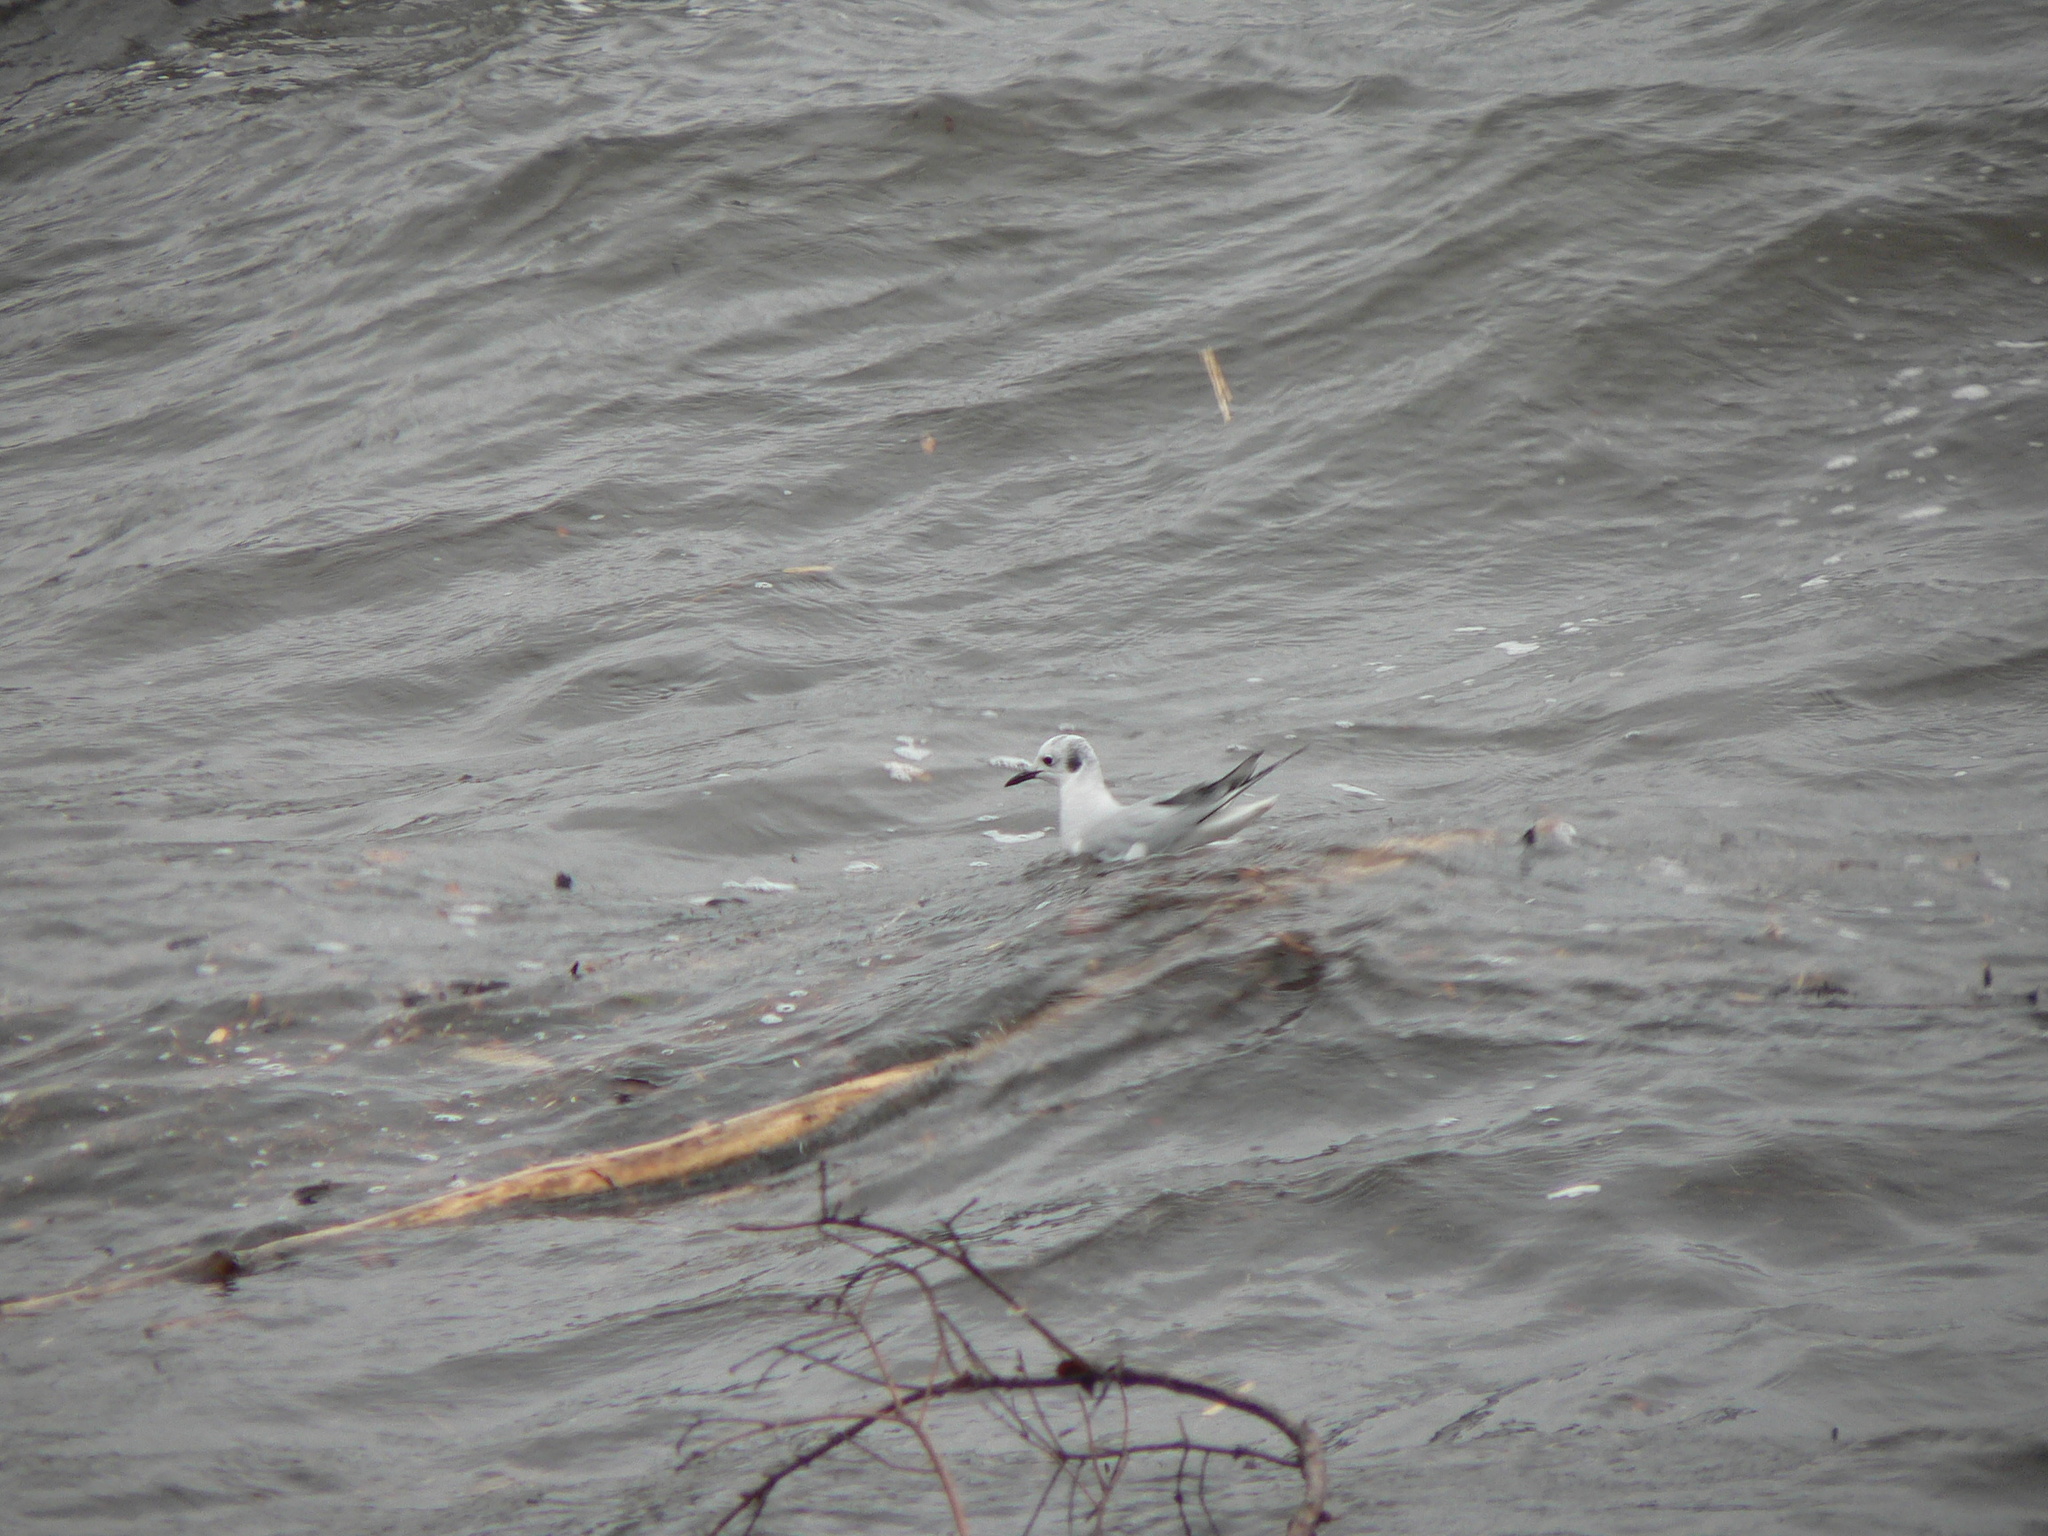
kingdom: Animalia
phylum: Chordata
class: Aves
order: Charadriiformes
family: Laridae
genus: Chroicocephalus
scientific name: Chroicocephalus philadelphia
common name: Bonaparte's gull
